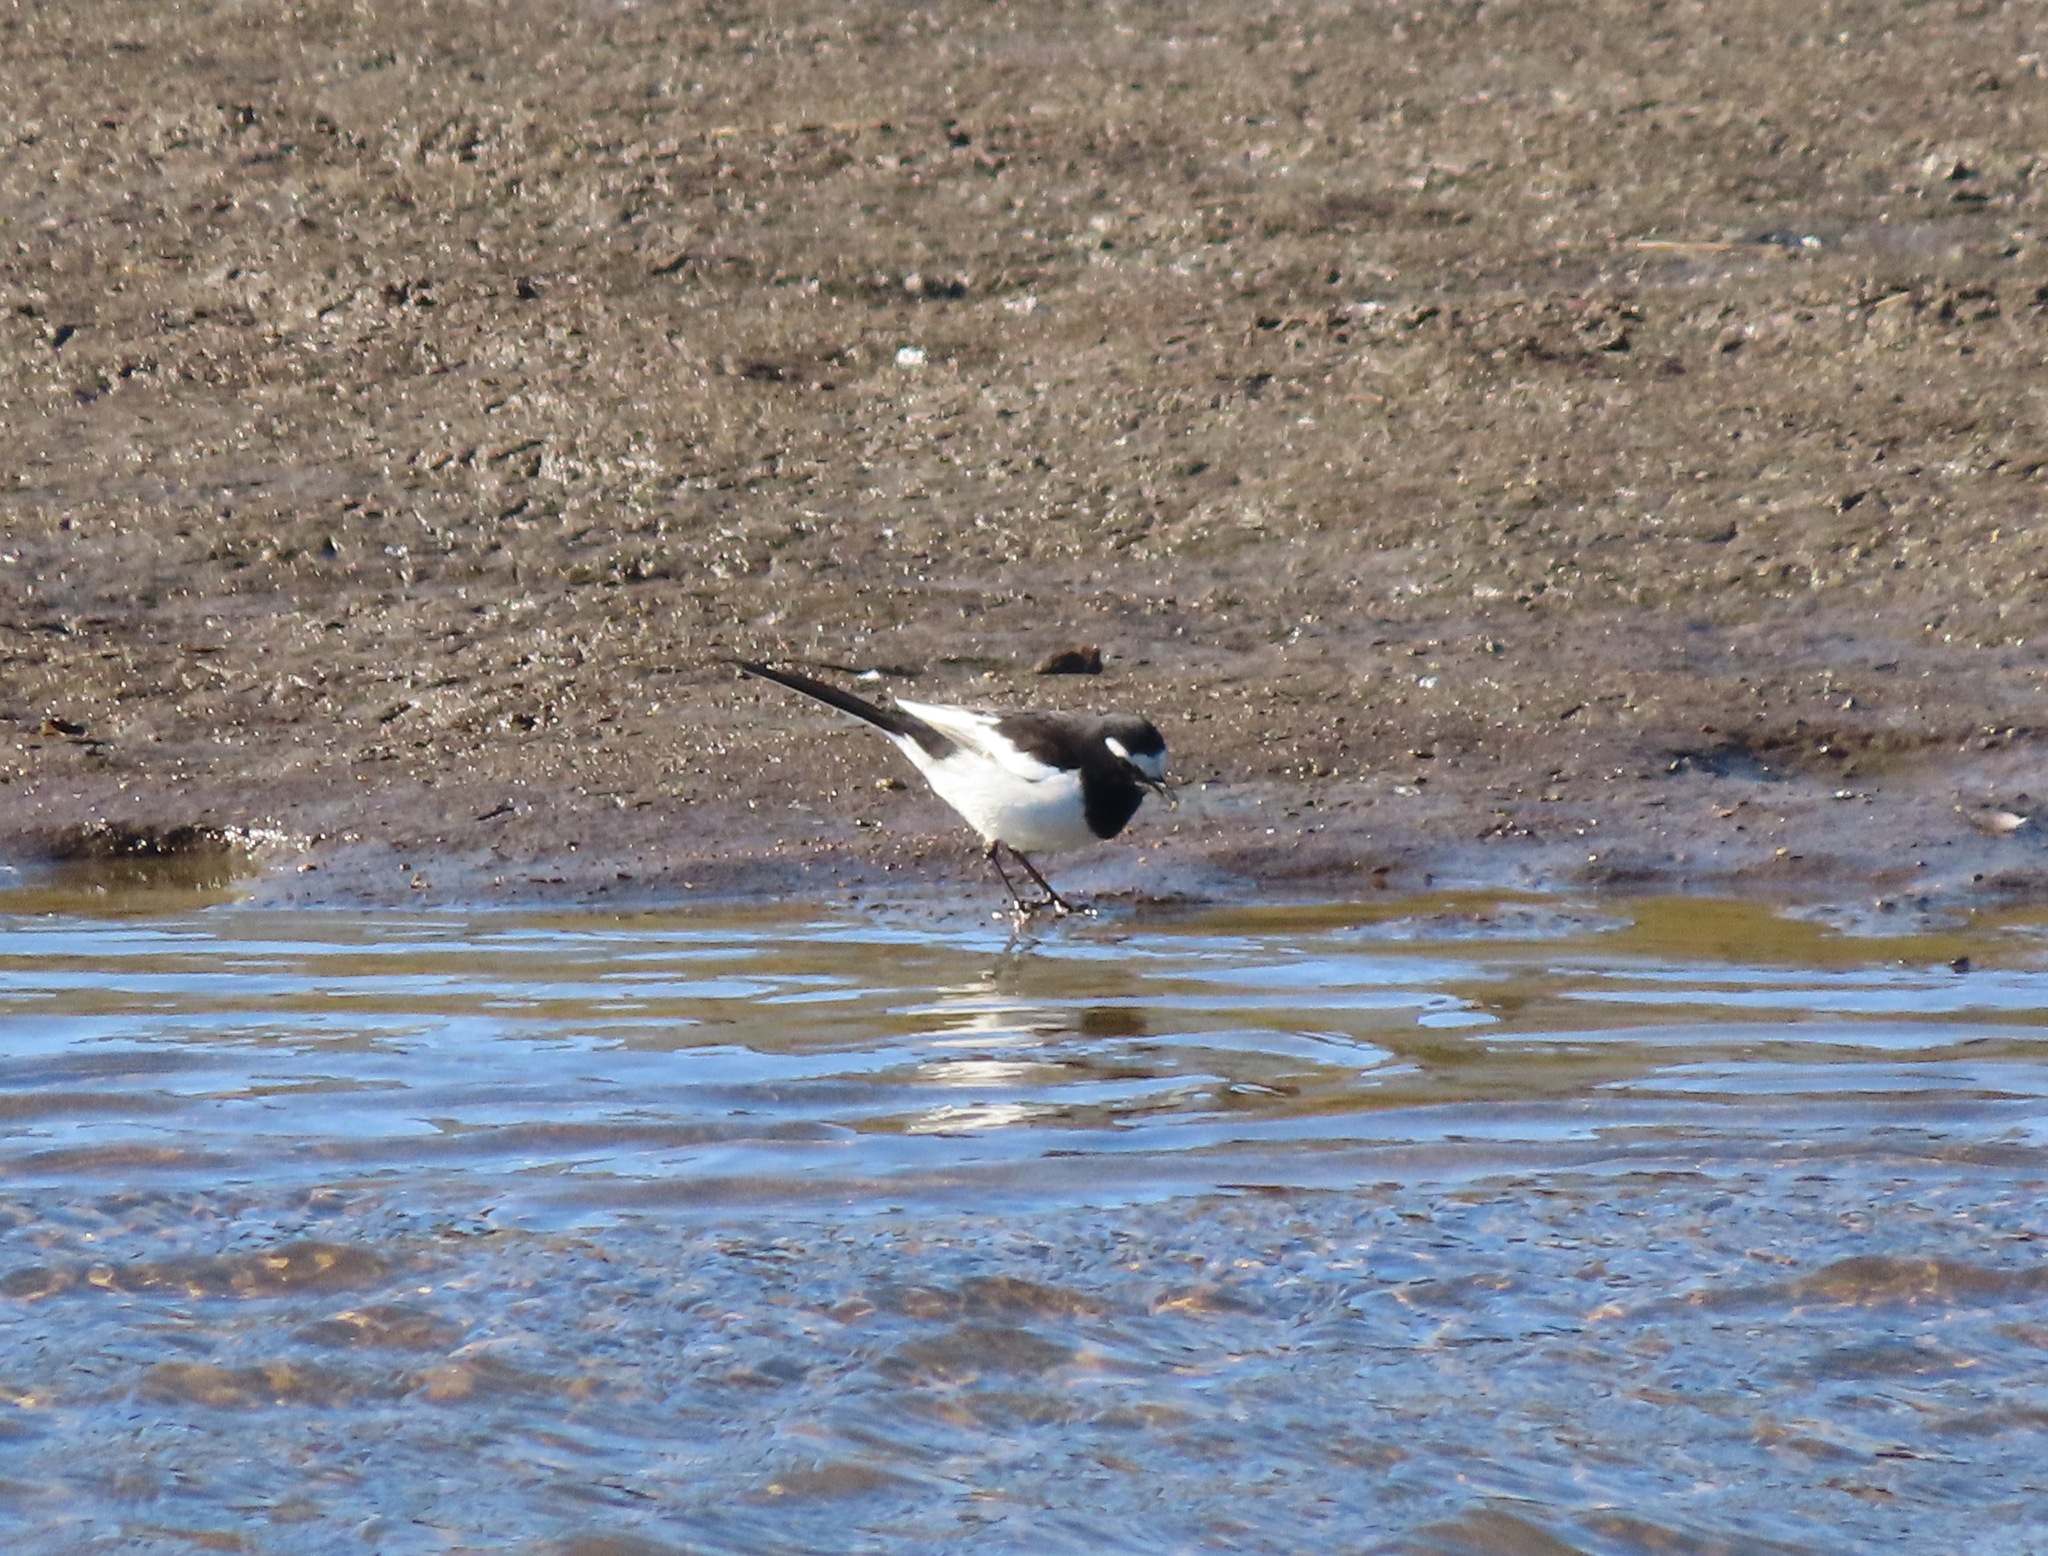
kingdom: Animalia
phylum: Chordata
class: Aves
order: Passeriformes
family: Motacillidae
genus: Motacilla
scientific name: Motacilla grandis
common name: Japanese wagtail
